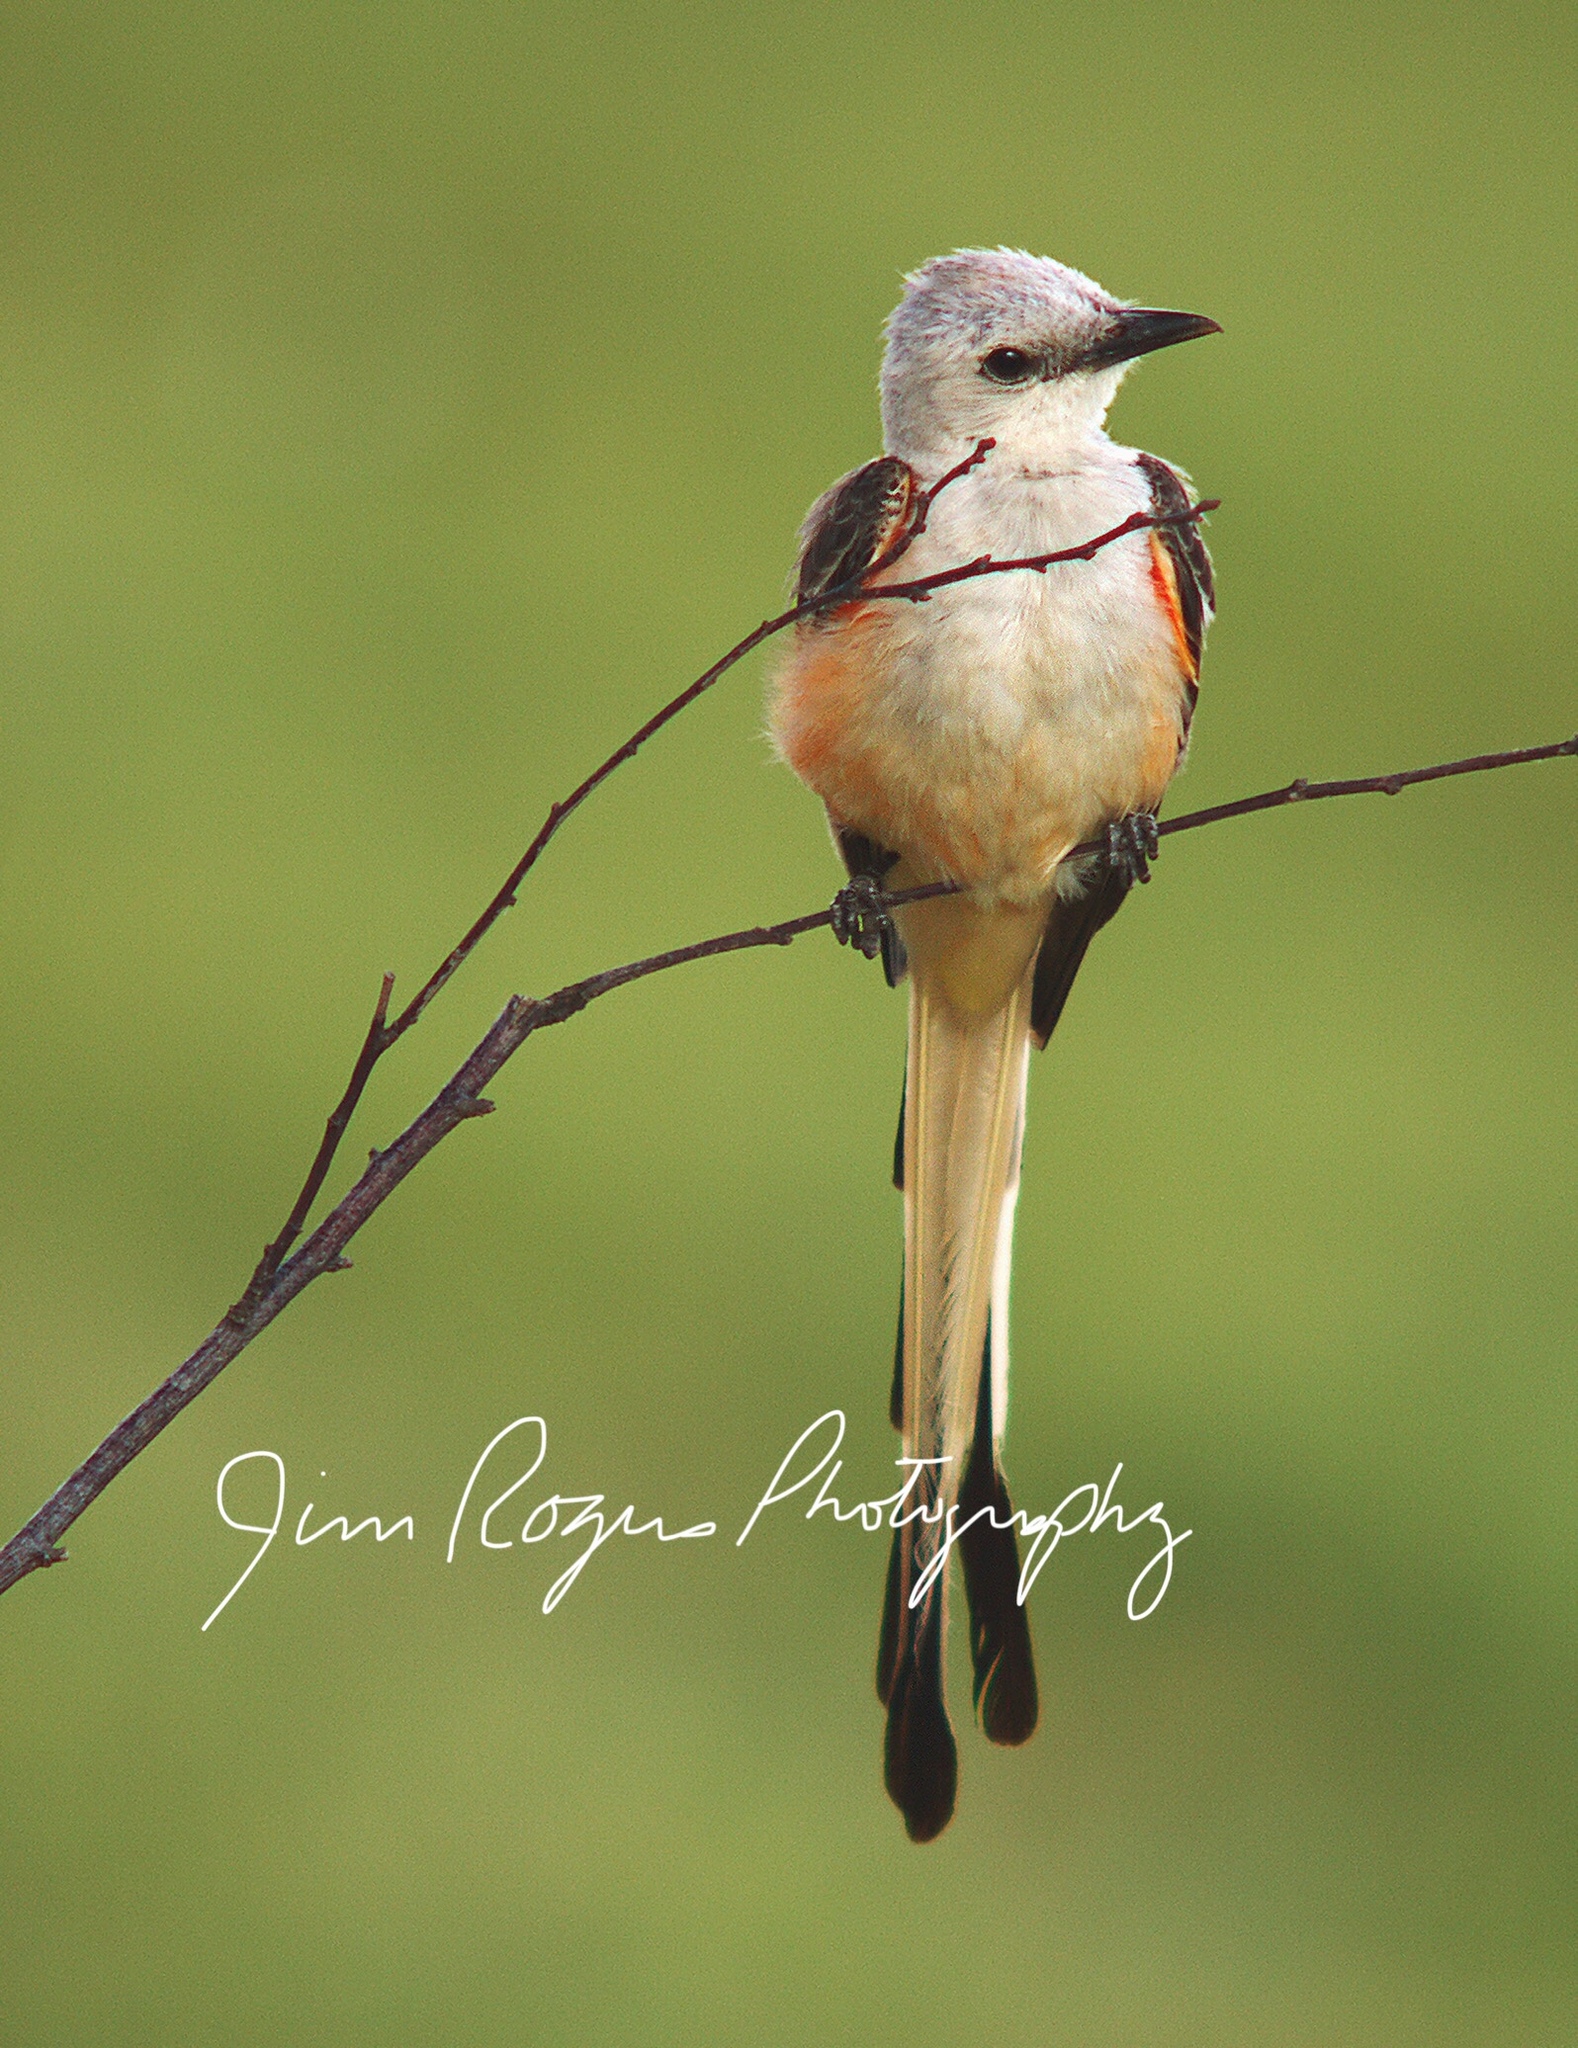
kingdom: Animalia
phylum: Chordata
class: Aves
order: Passeriformes
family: Tyrannidae
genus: Tyrannus
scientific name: Tyrannus forficatus
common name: Scissor-tailed flycatcher
